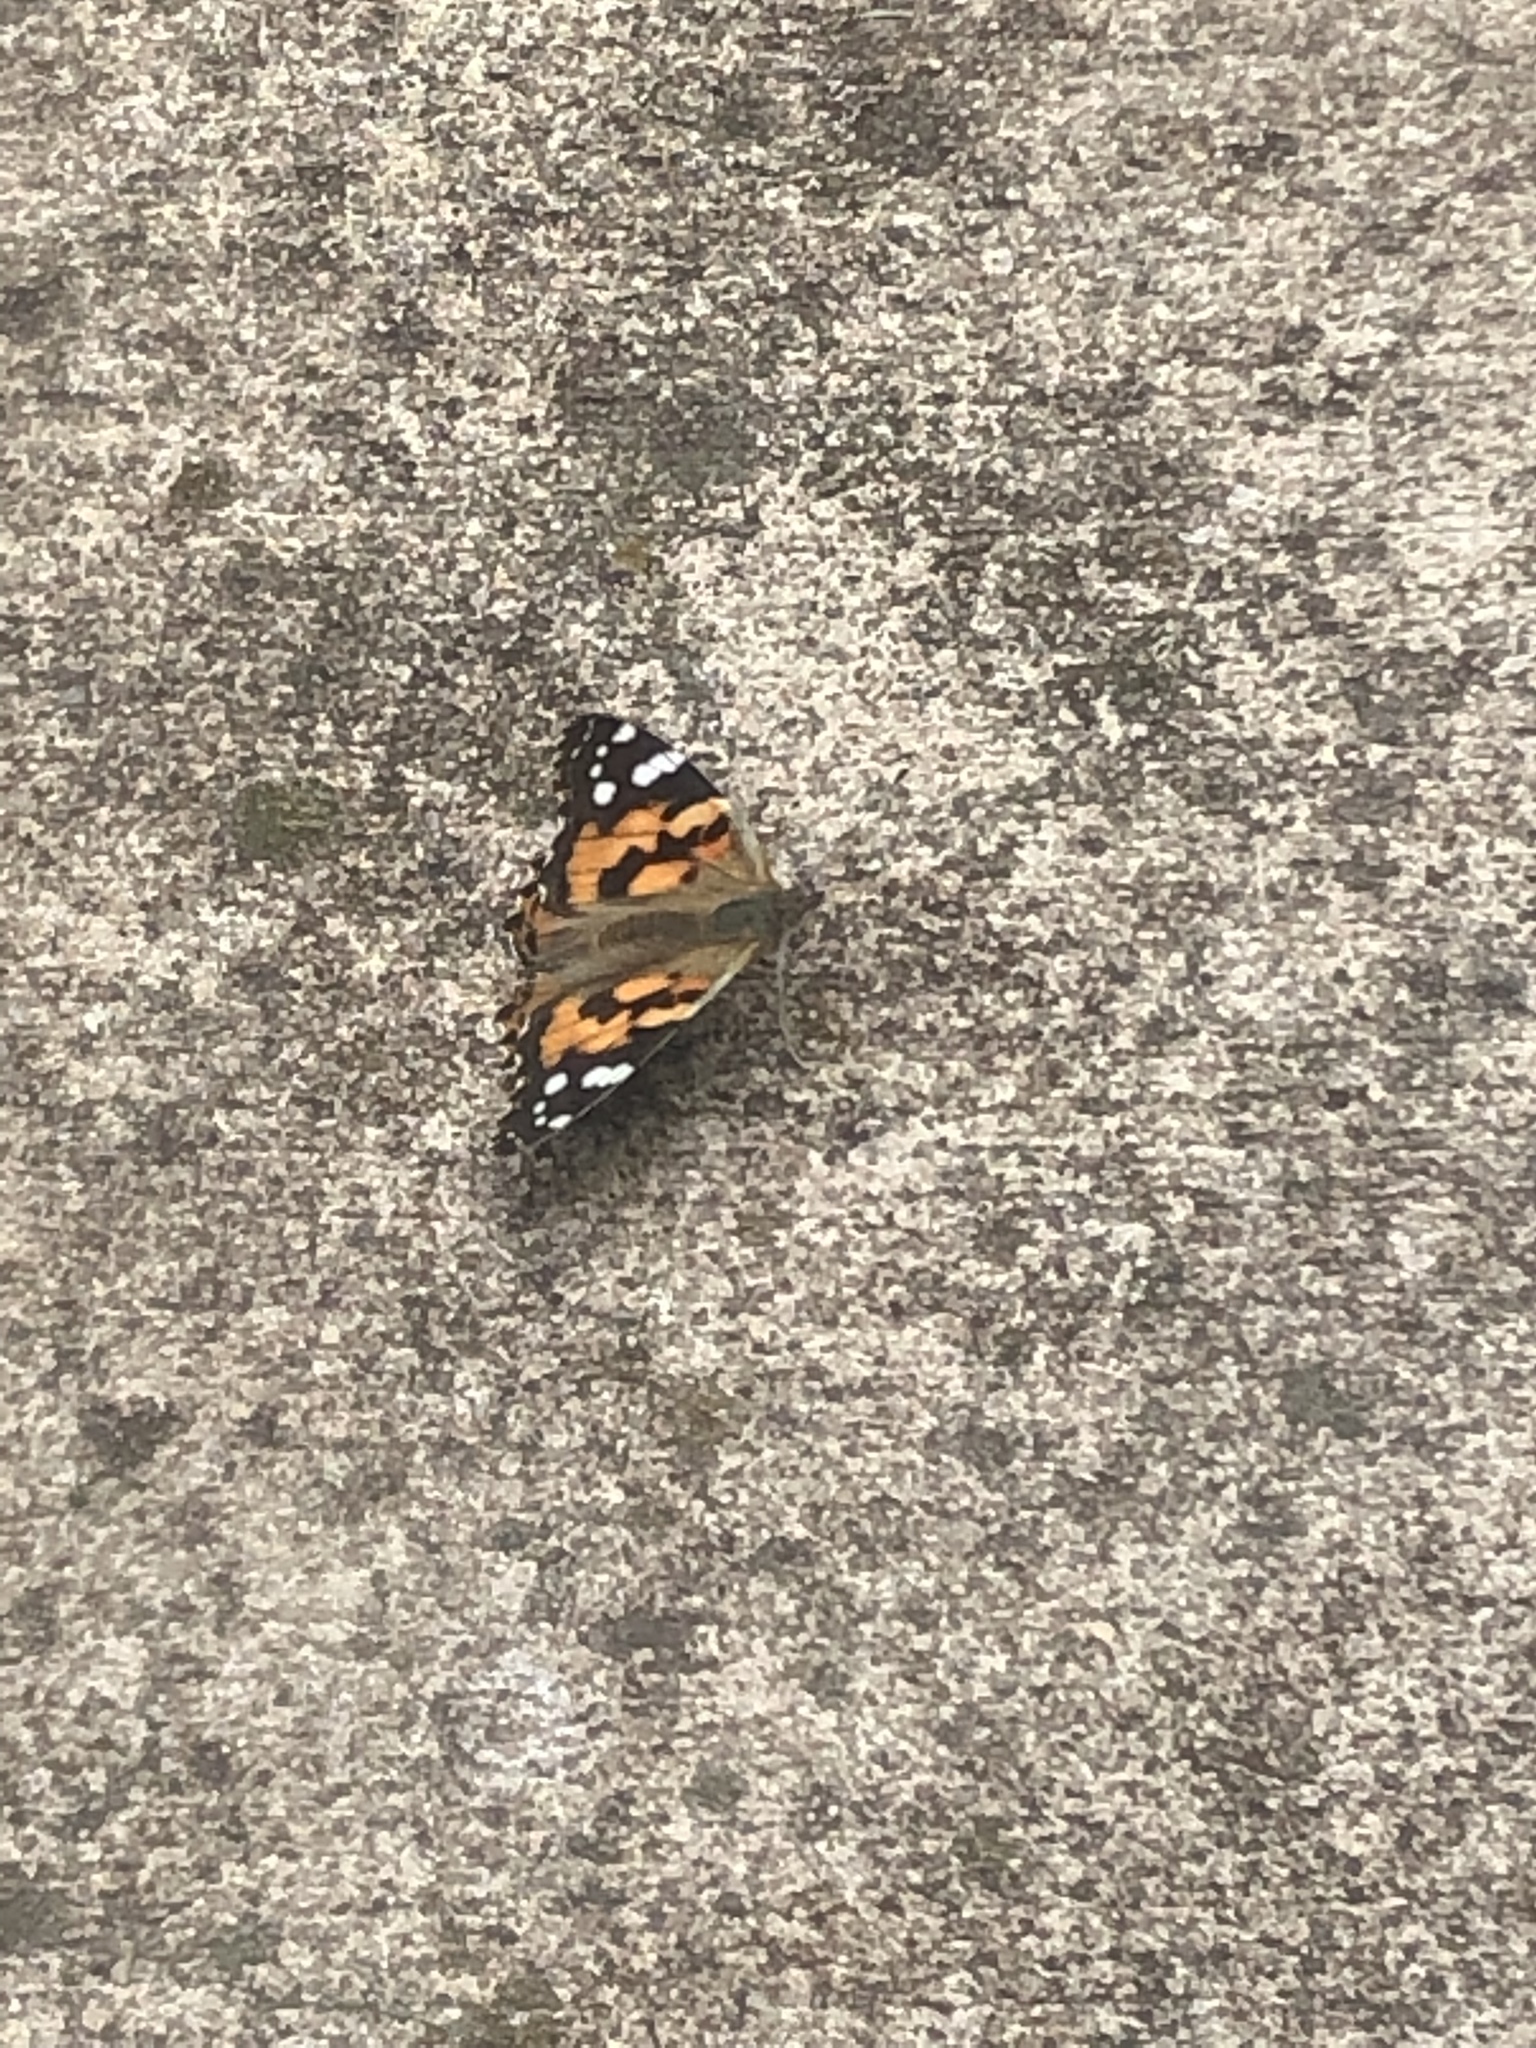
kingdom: Animalia
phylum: Arthropoda
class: Insecta
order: Lepidoptera
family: Nymphalidae
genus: Vanessa
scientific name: Vanessa cardui
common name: Painted lady
